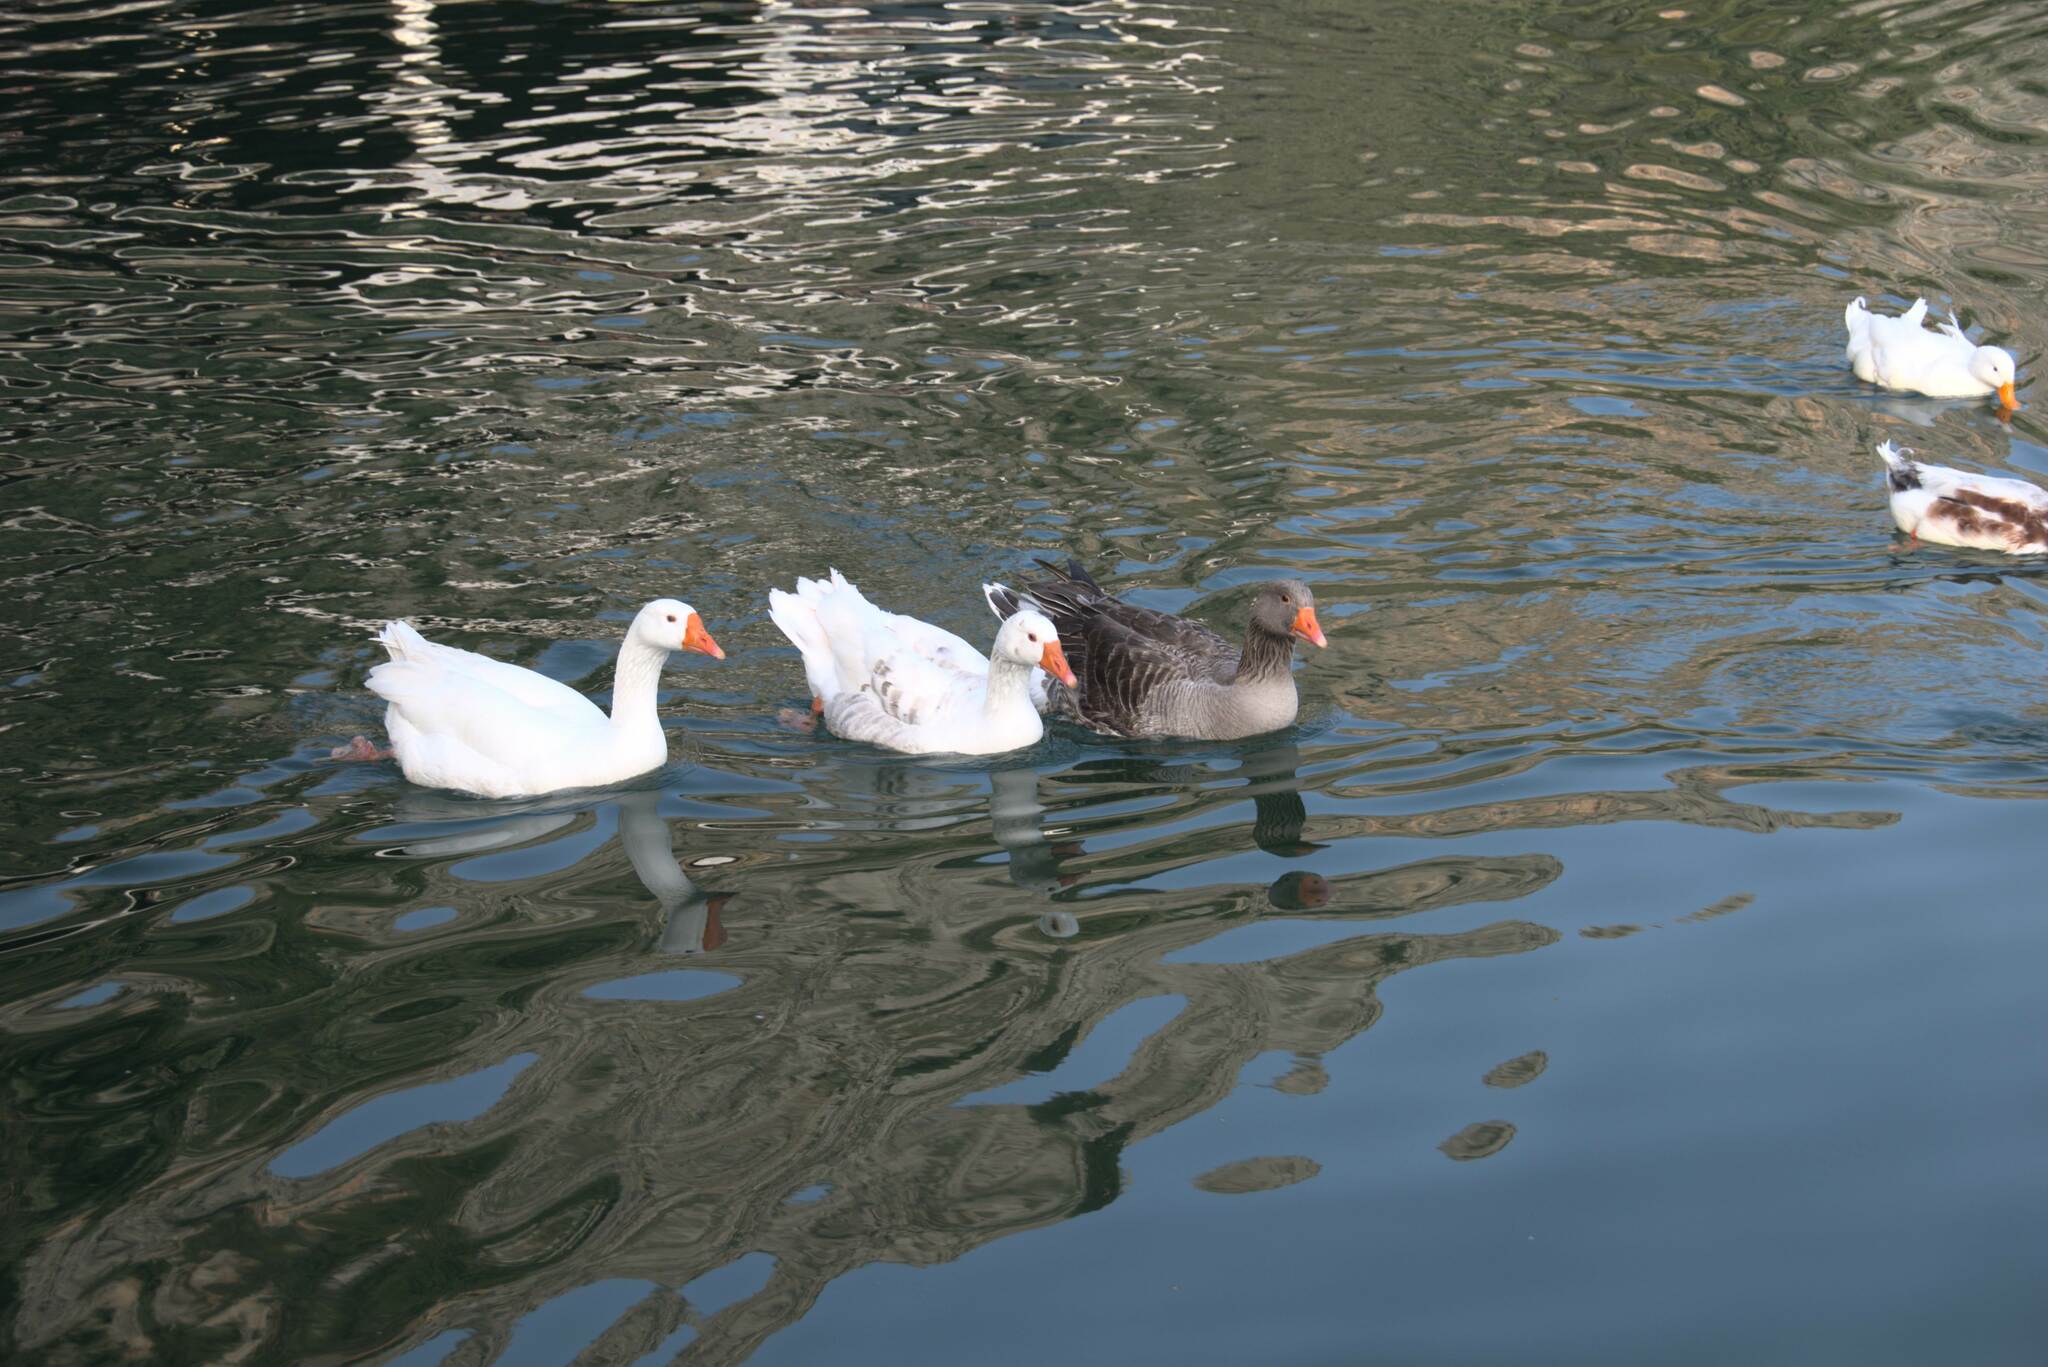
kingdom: Animalia
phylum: Chordata
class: Aves
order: Anseriformes
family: Anatidae
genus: Anser
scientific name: Anser anser
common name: Greylag goose
